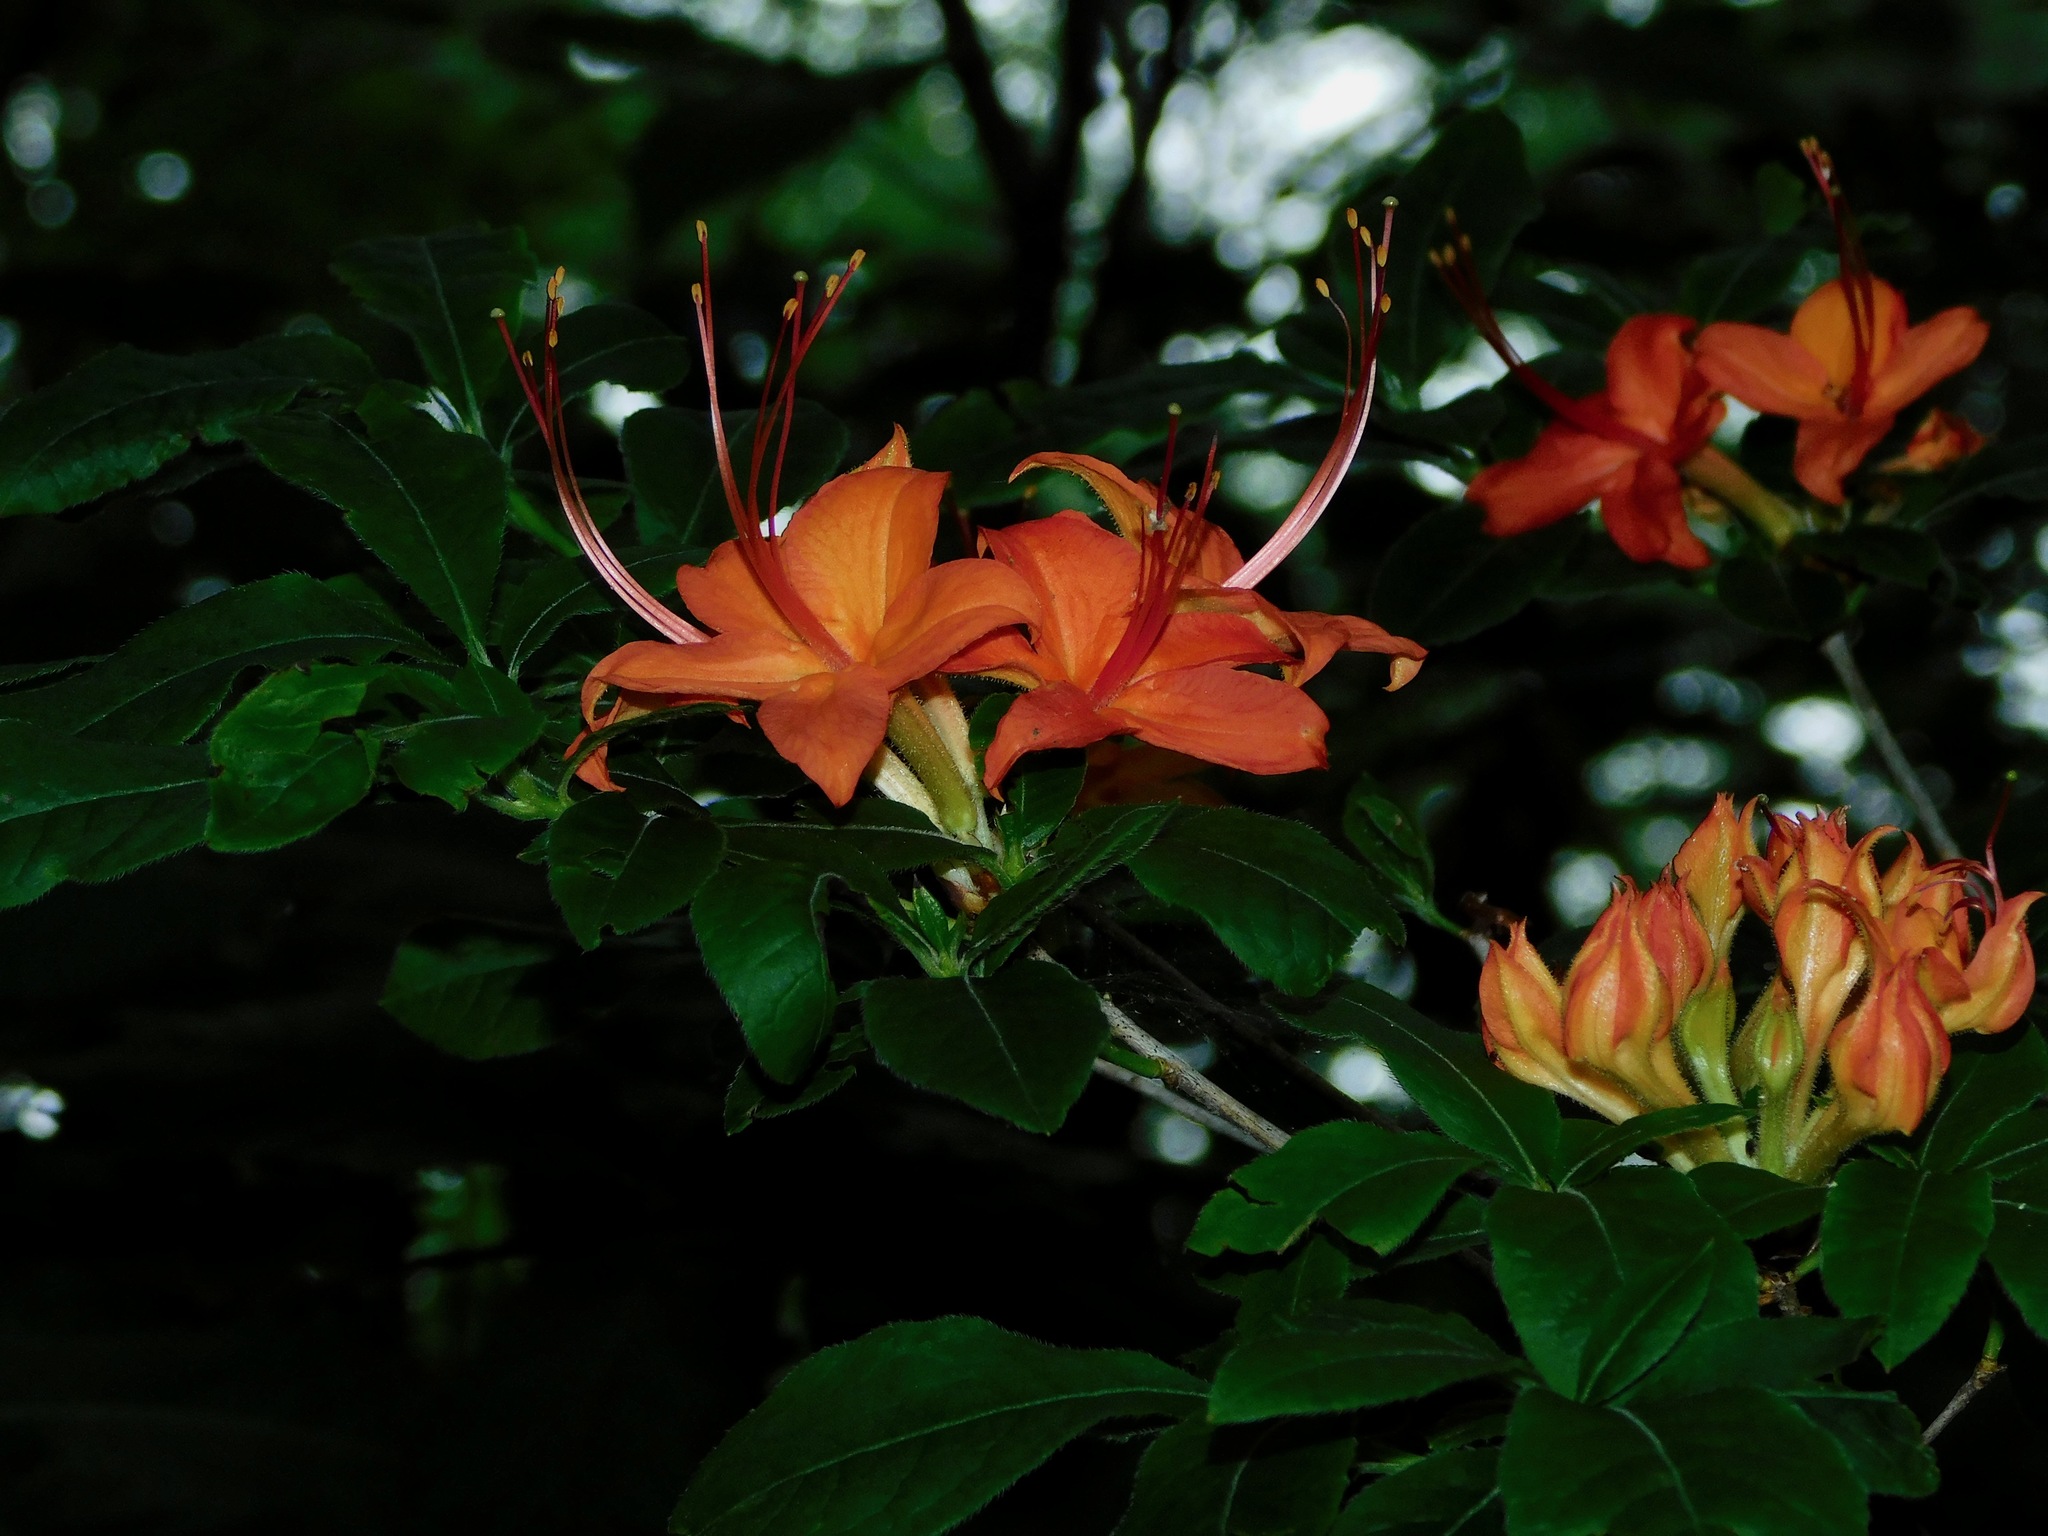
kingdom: Plantae
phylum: Tracheophyta
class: Magnoliopsida
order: Ericales
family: Ericaceae
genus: Rhododendron
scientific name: Rhododendron cumberlandense
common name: Diploid flame azalea
